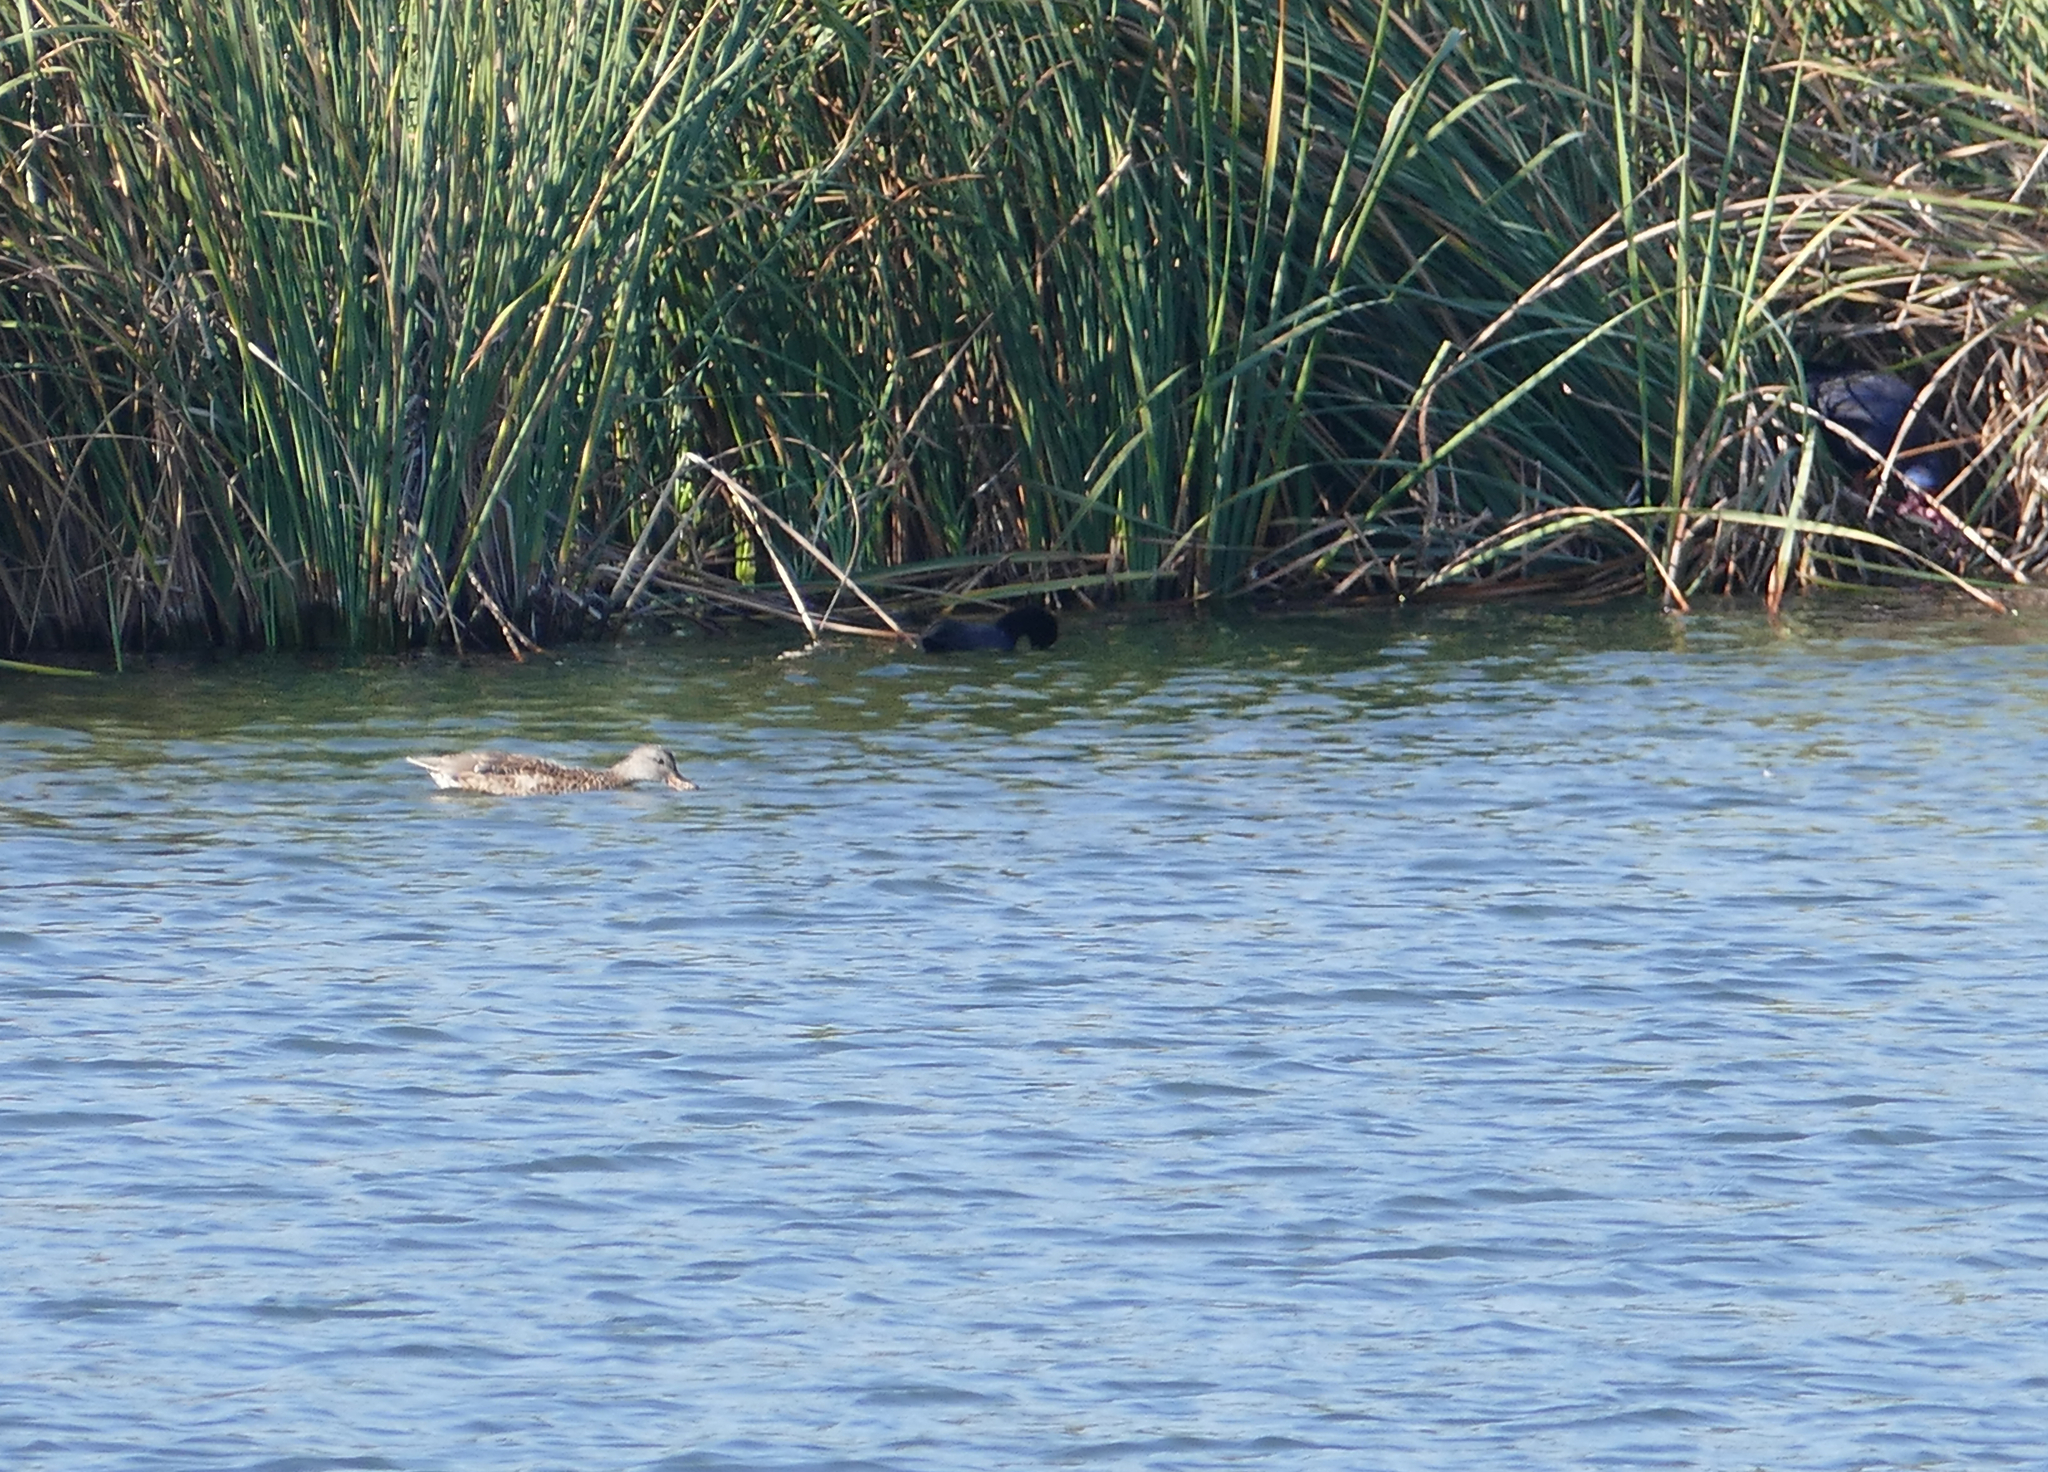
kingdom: Animalia
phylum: Chordata
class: Aves
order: Gruiformes
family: Rallidae
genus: Porphyrio
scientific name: Porphyrio porphyrio
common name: Purple swamphen
